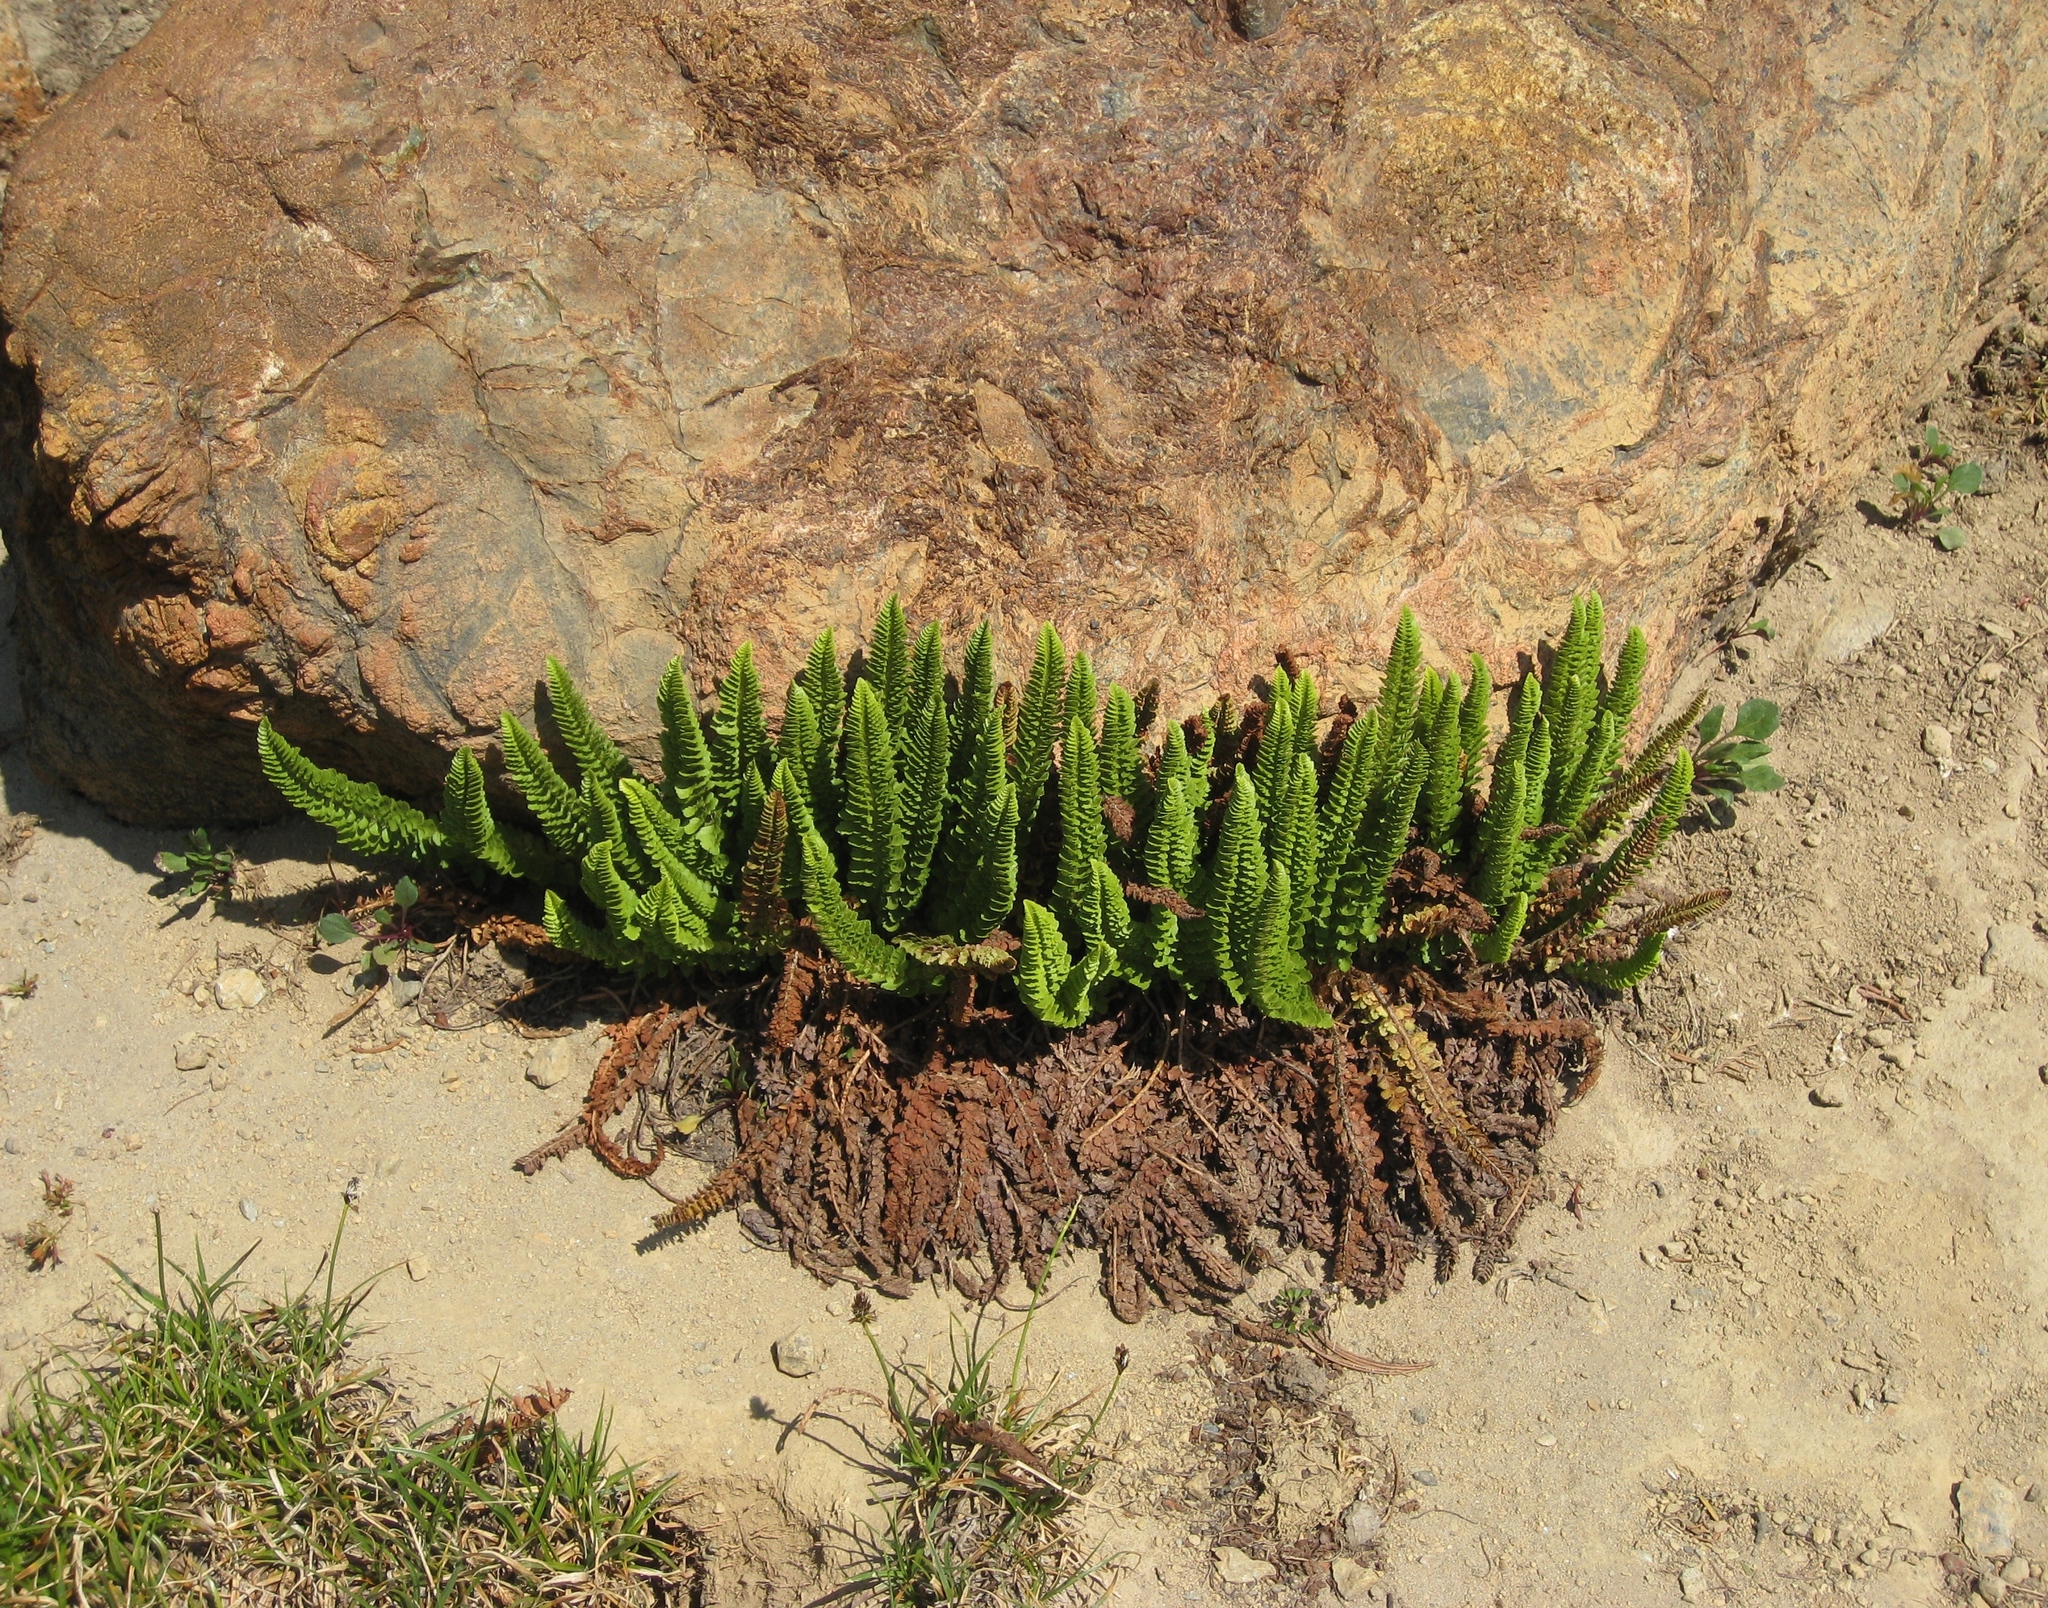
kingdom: Plantae
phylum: Tracheophyta
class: Polypodiopsida
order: Polypodiales
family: Dryopteridaceae
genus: Polystichum
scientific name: Polystichum lemmonii
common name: Lemmon's holly fern
